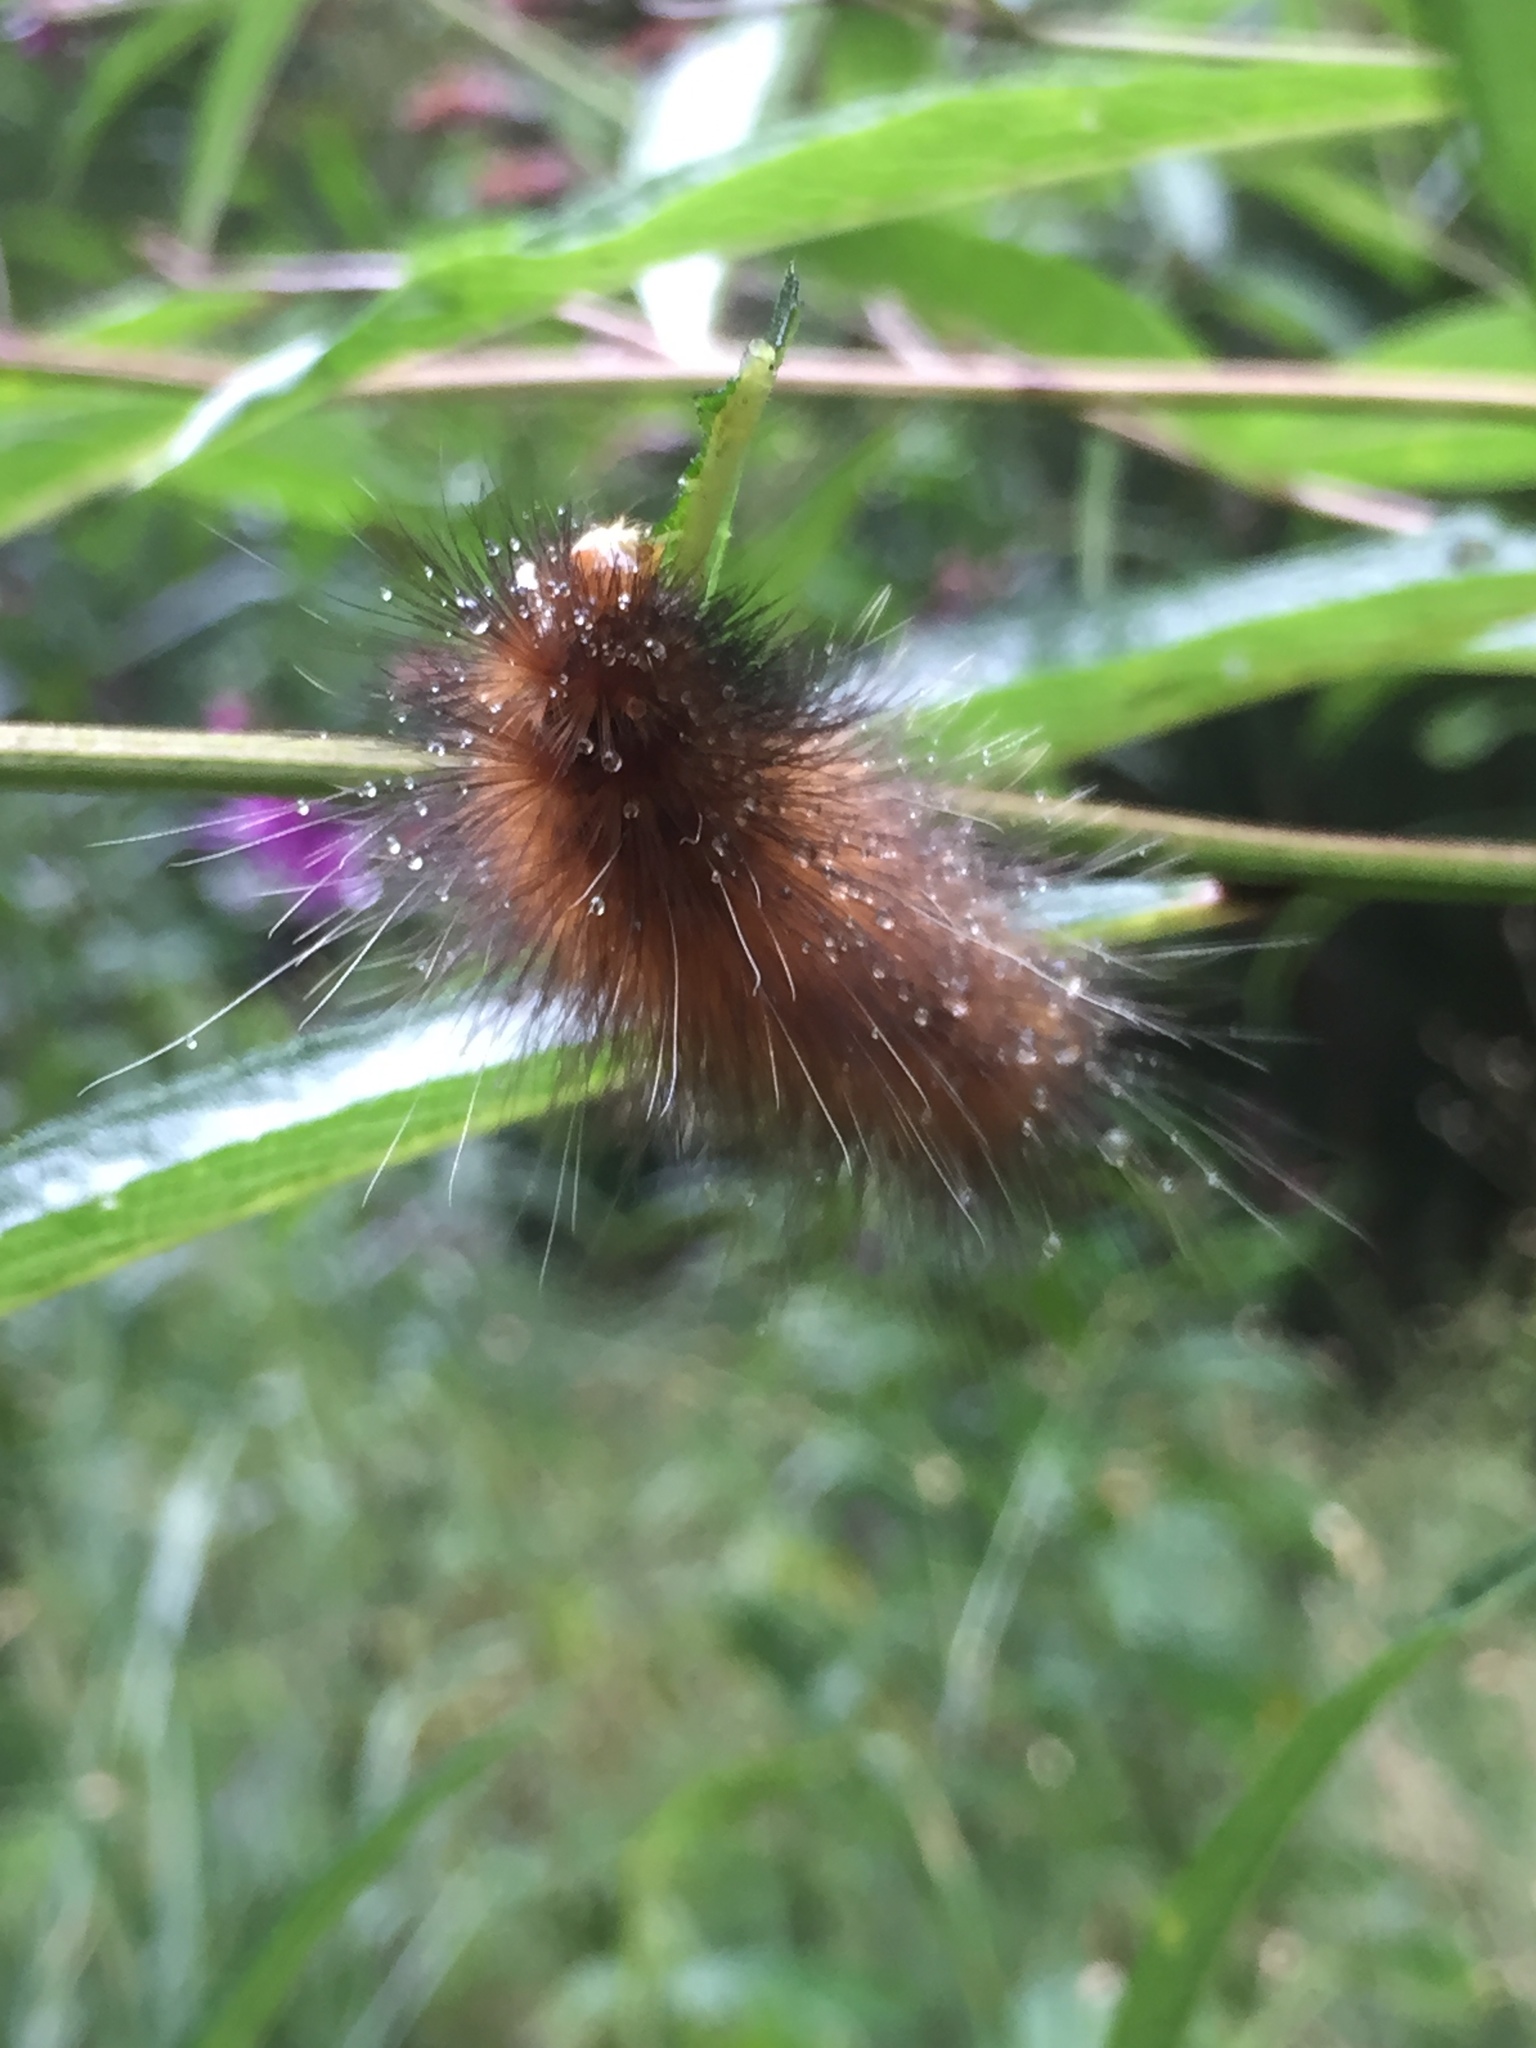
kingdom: Animalia
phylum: Arthropoda
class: Insecta
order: Lepidoptera
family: Erebidae
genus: Spilosoma
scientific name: Spilosoma virginica
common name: Virginia tiger moth
